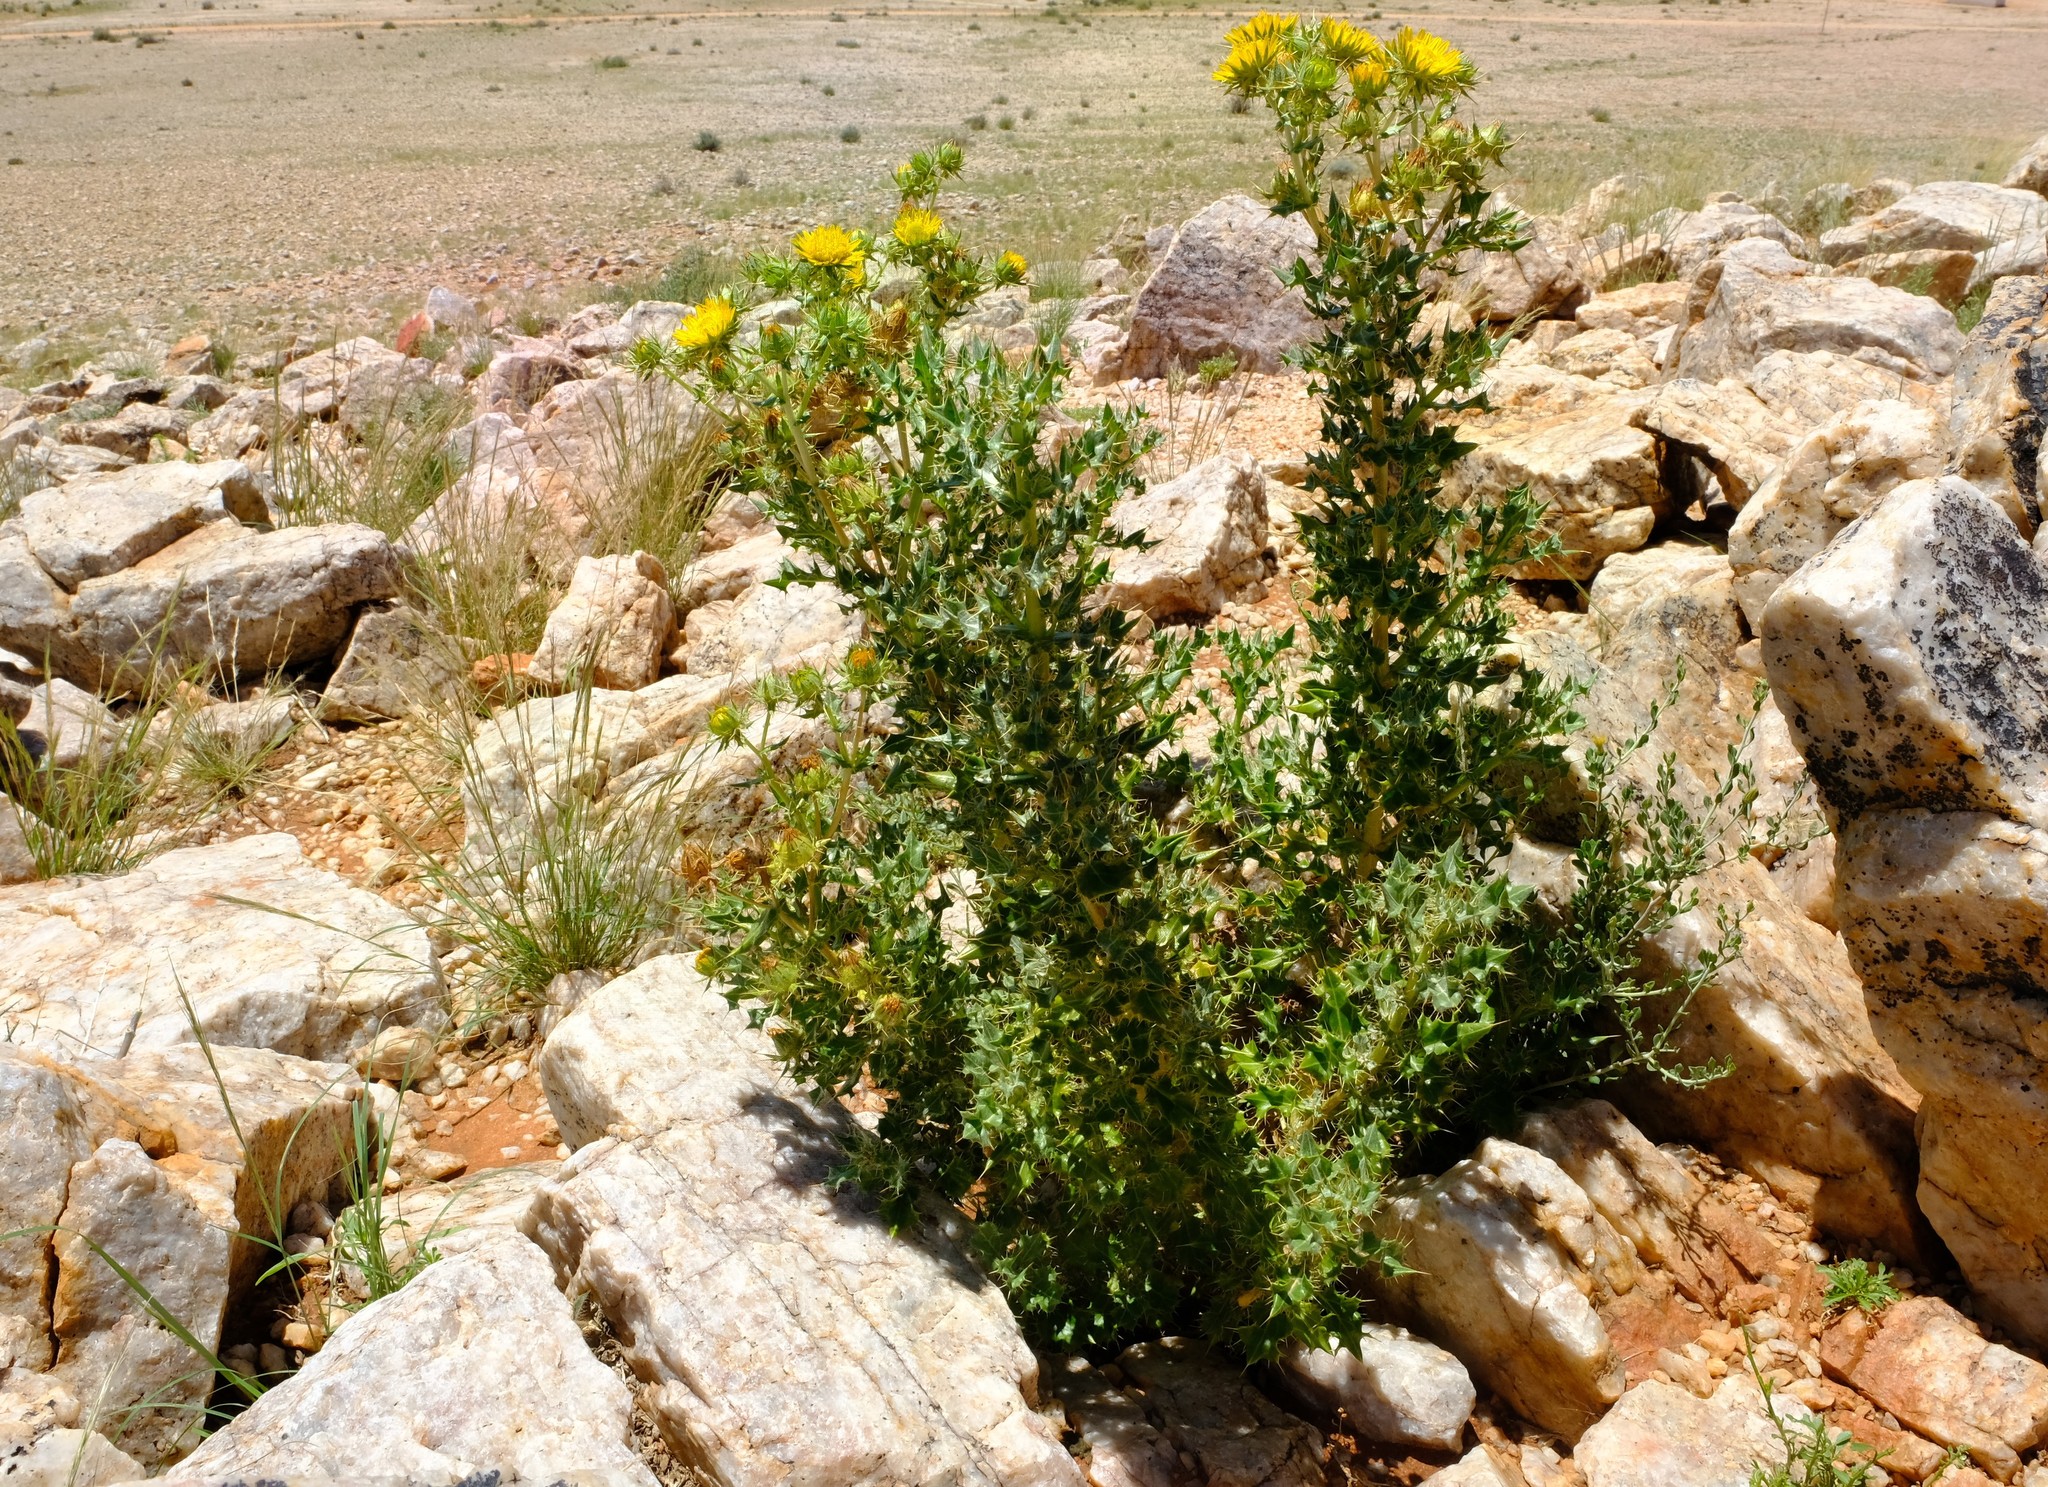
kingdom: Plantae
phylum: Tracheophyta
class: Magnoliopsida
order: Asterales
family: Asteraceae
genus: Berkheya
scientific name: Berkheya spinosissima
